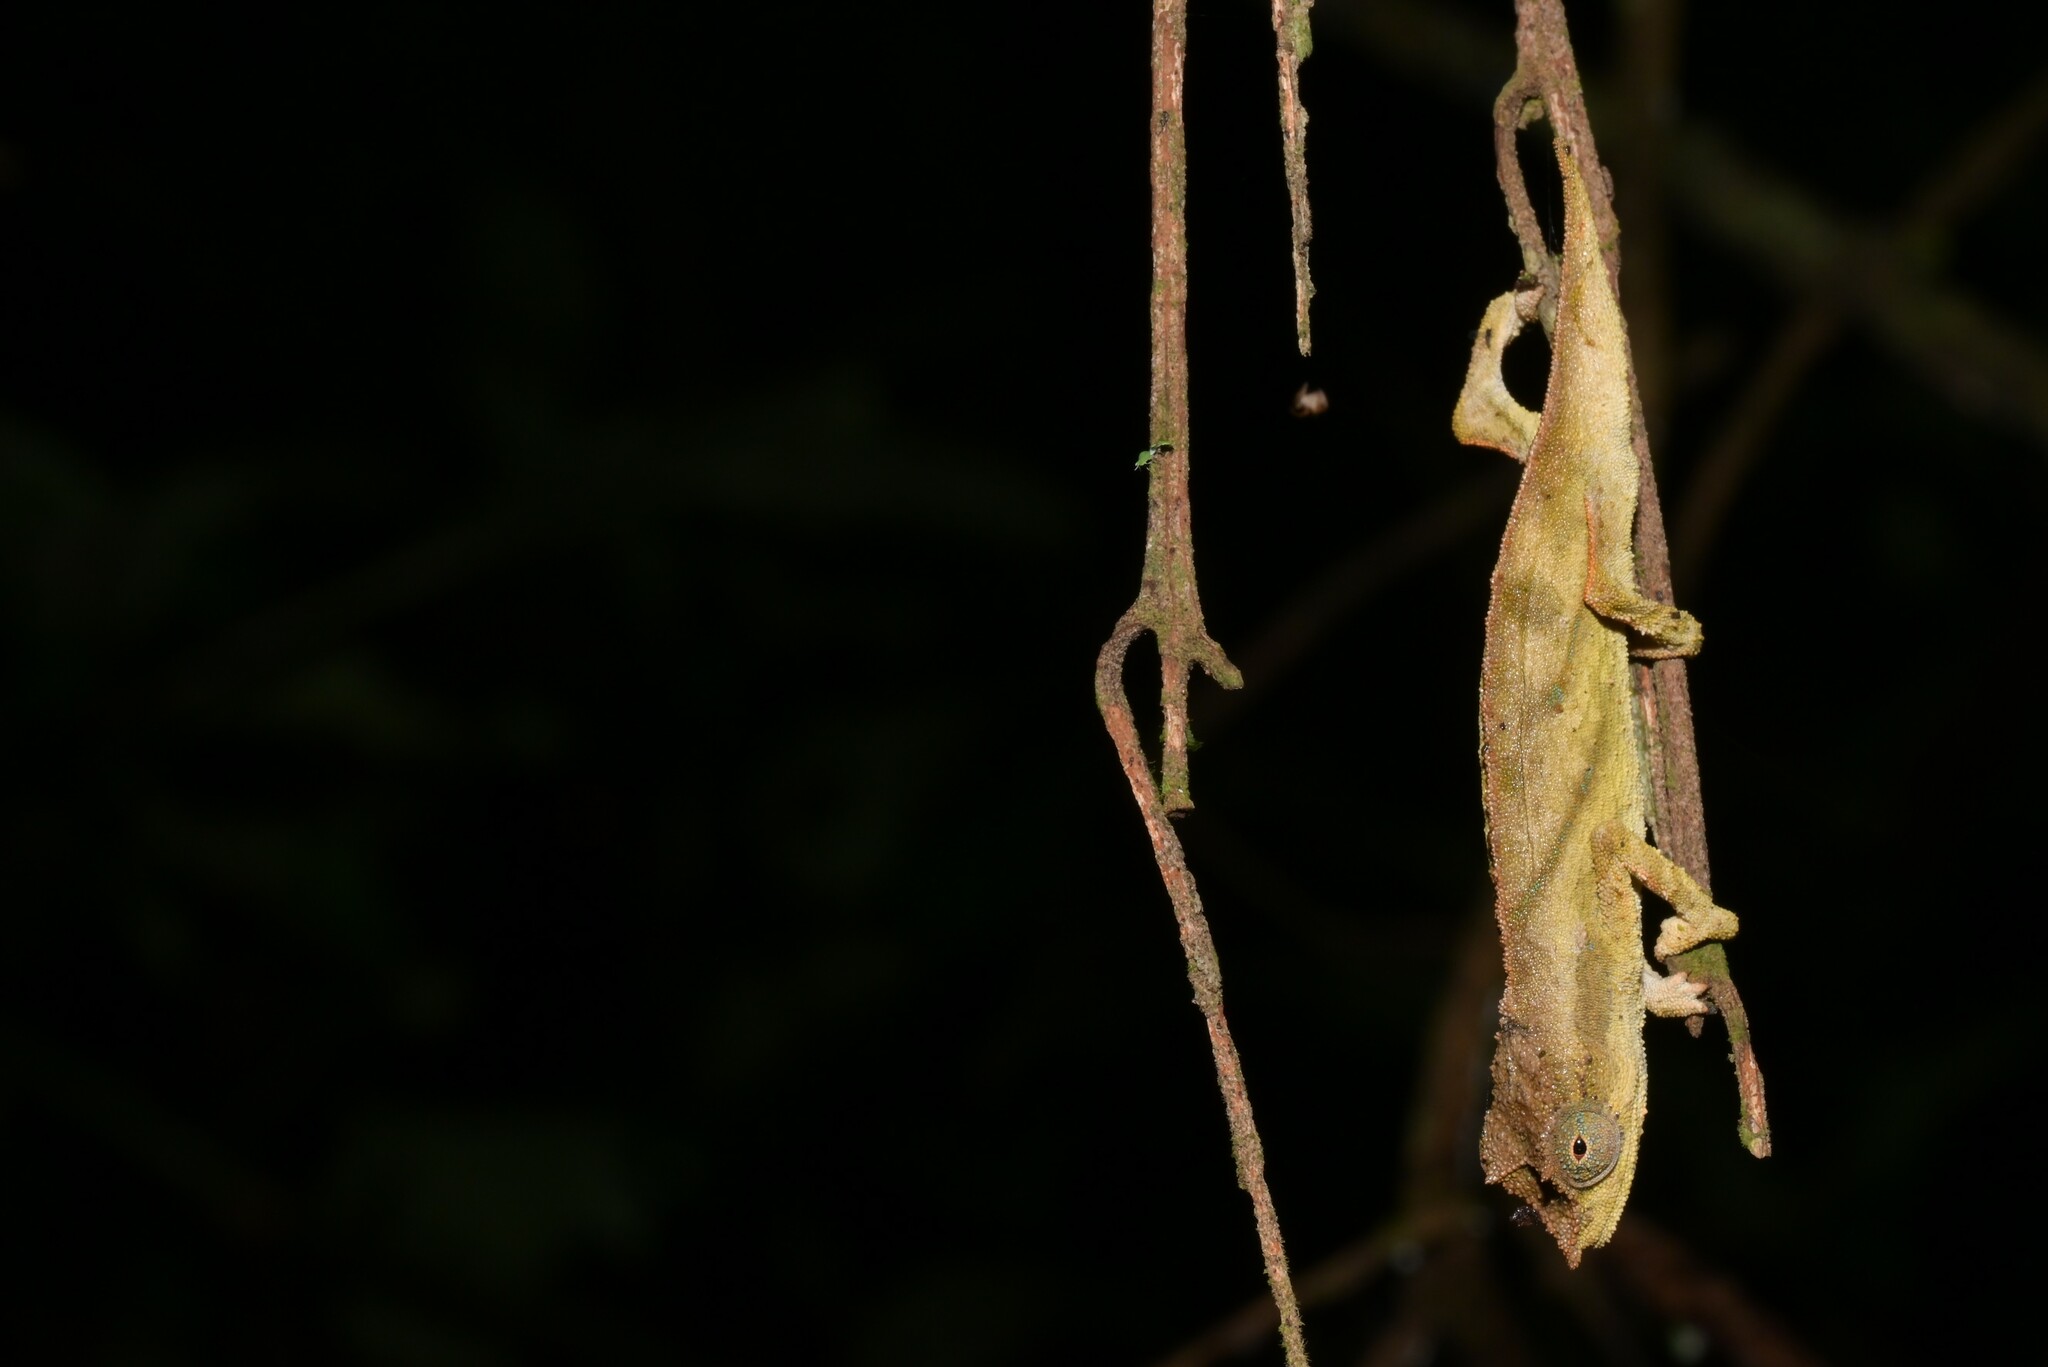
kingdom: Animalia
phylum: Chordata
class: Squamata
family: Chamaeleonidae
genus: Rhampholeon
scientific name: Rhampholeon nchisiensis
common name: South african stumptail chameleon
